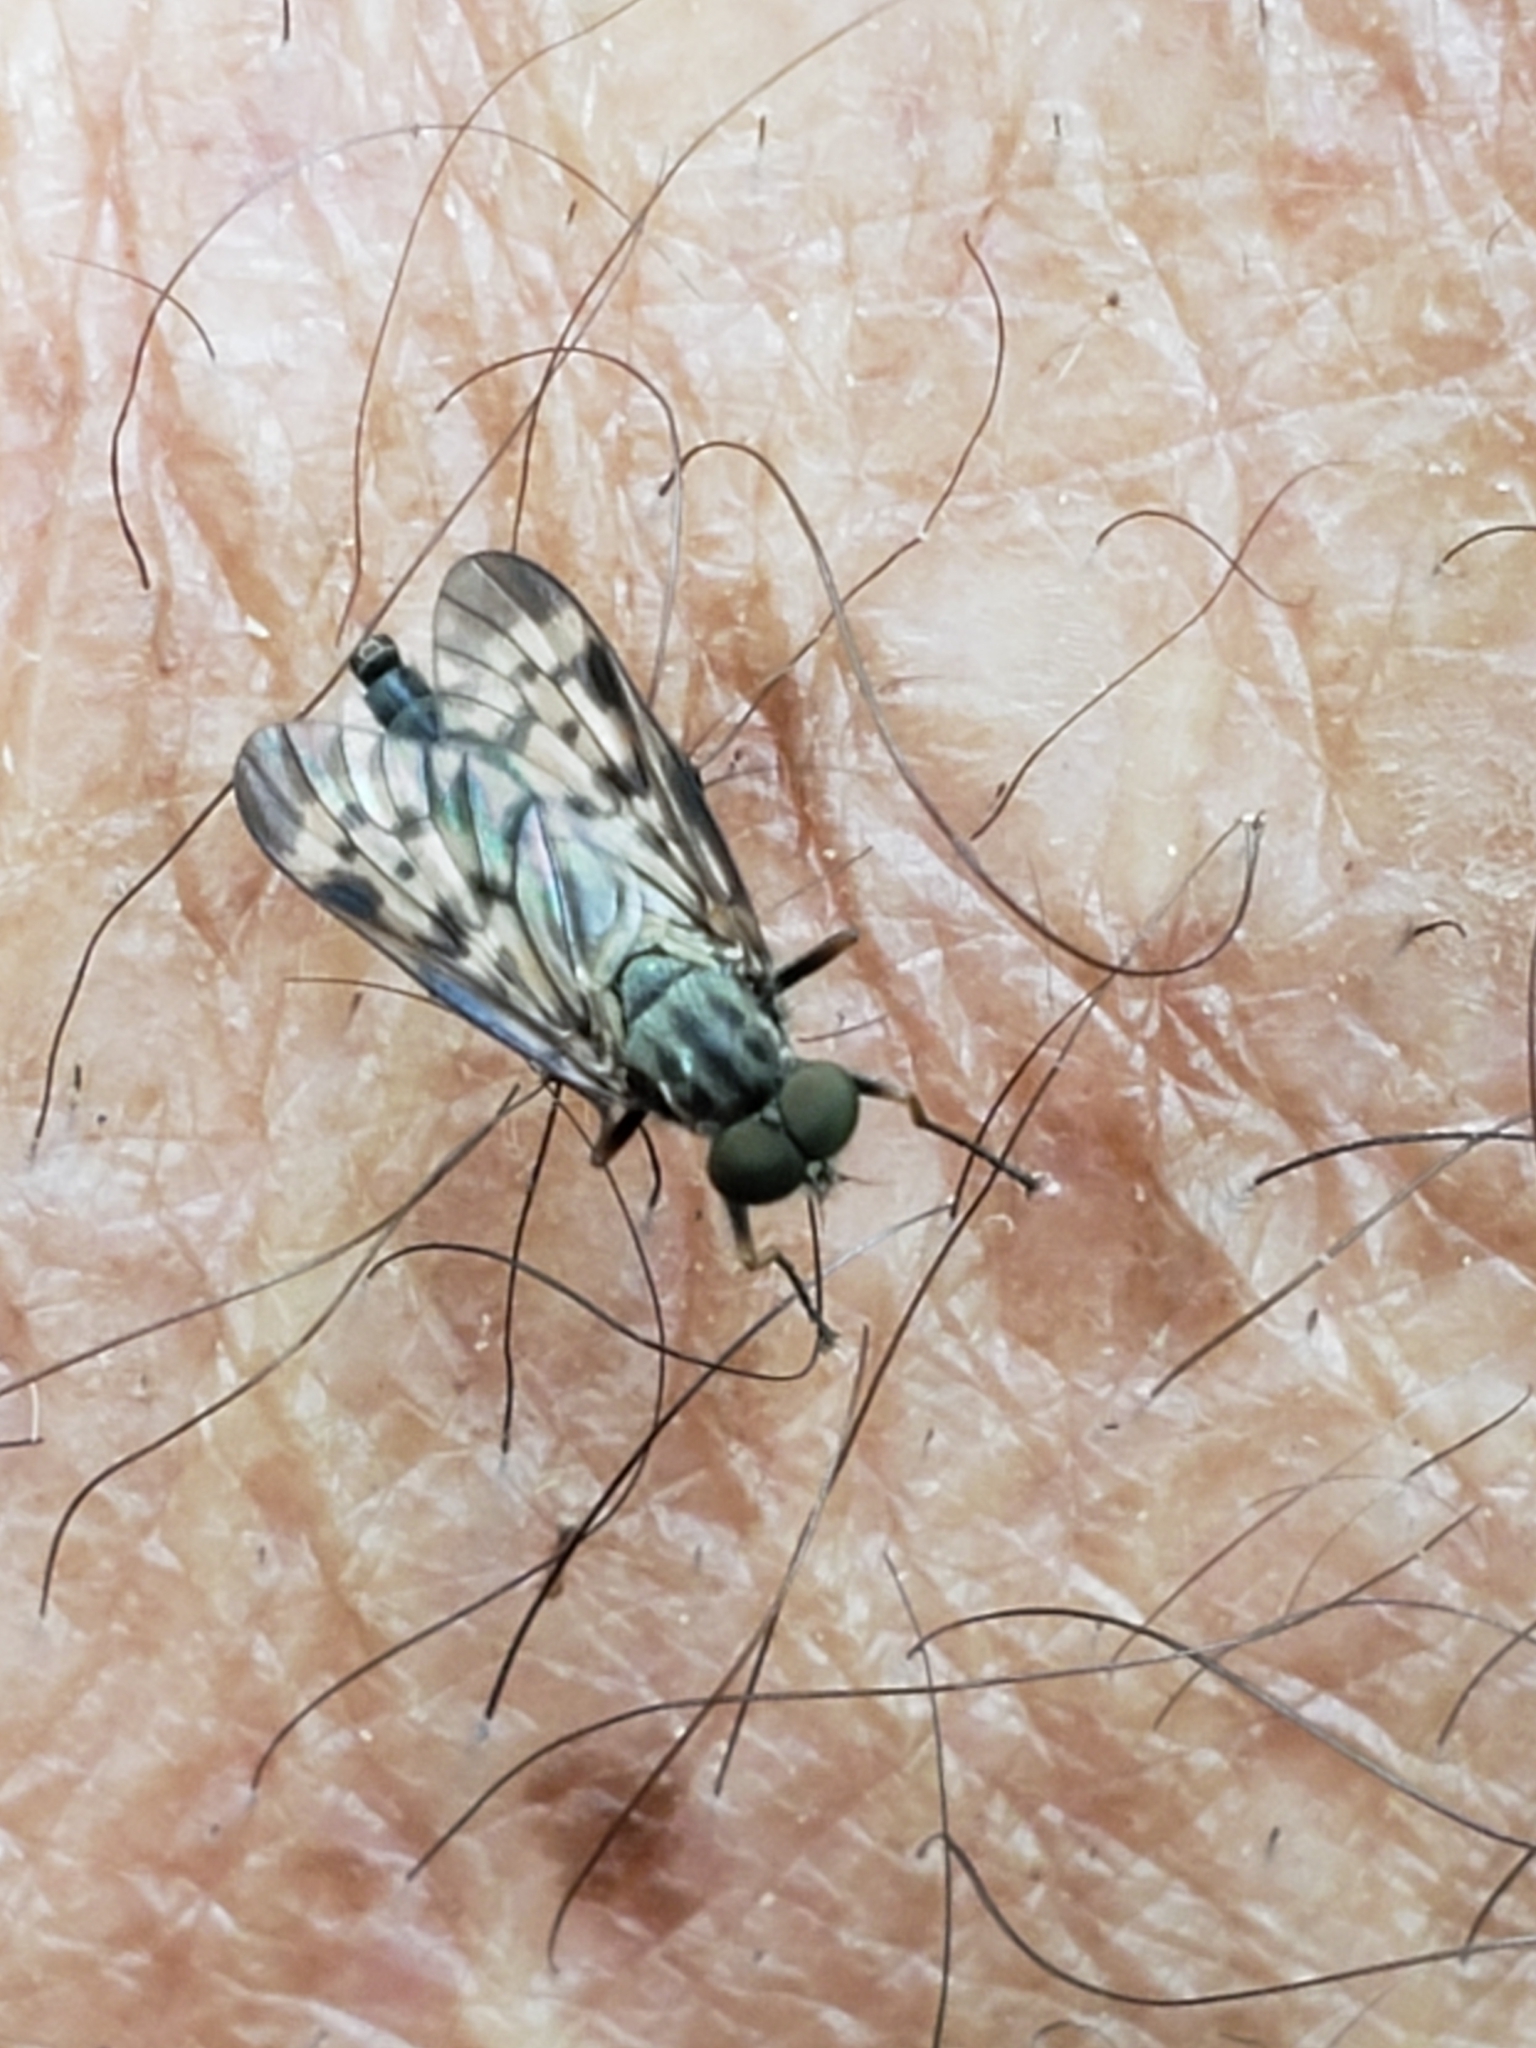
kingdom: Animalia
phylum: Arthropoda
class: Insecta
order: Diptera
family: Rhagionidae
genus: Rhagio
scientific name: Rhagio punctipennis
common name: Lesser variegated snipe fly
